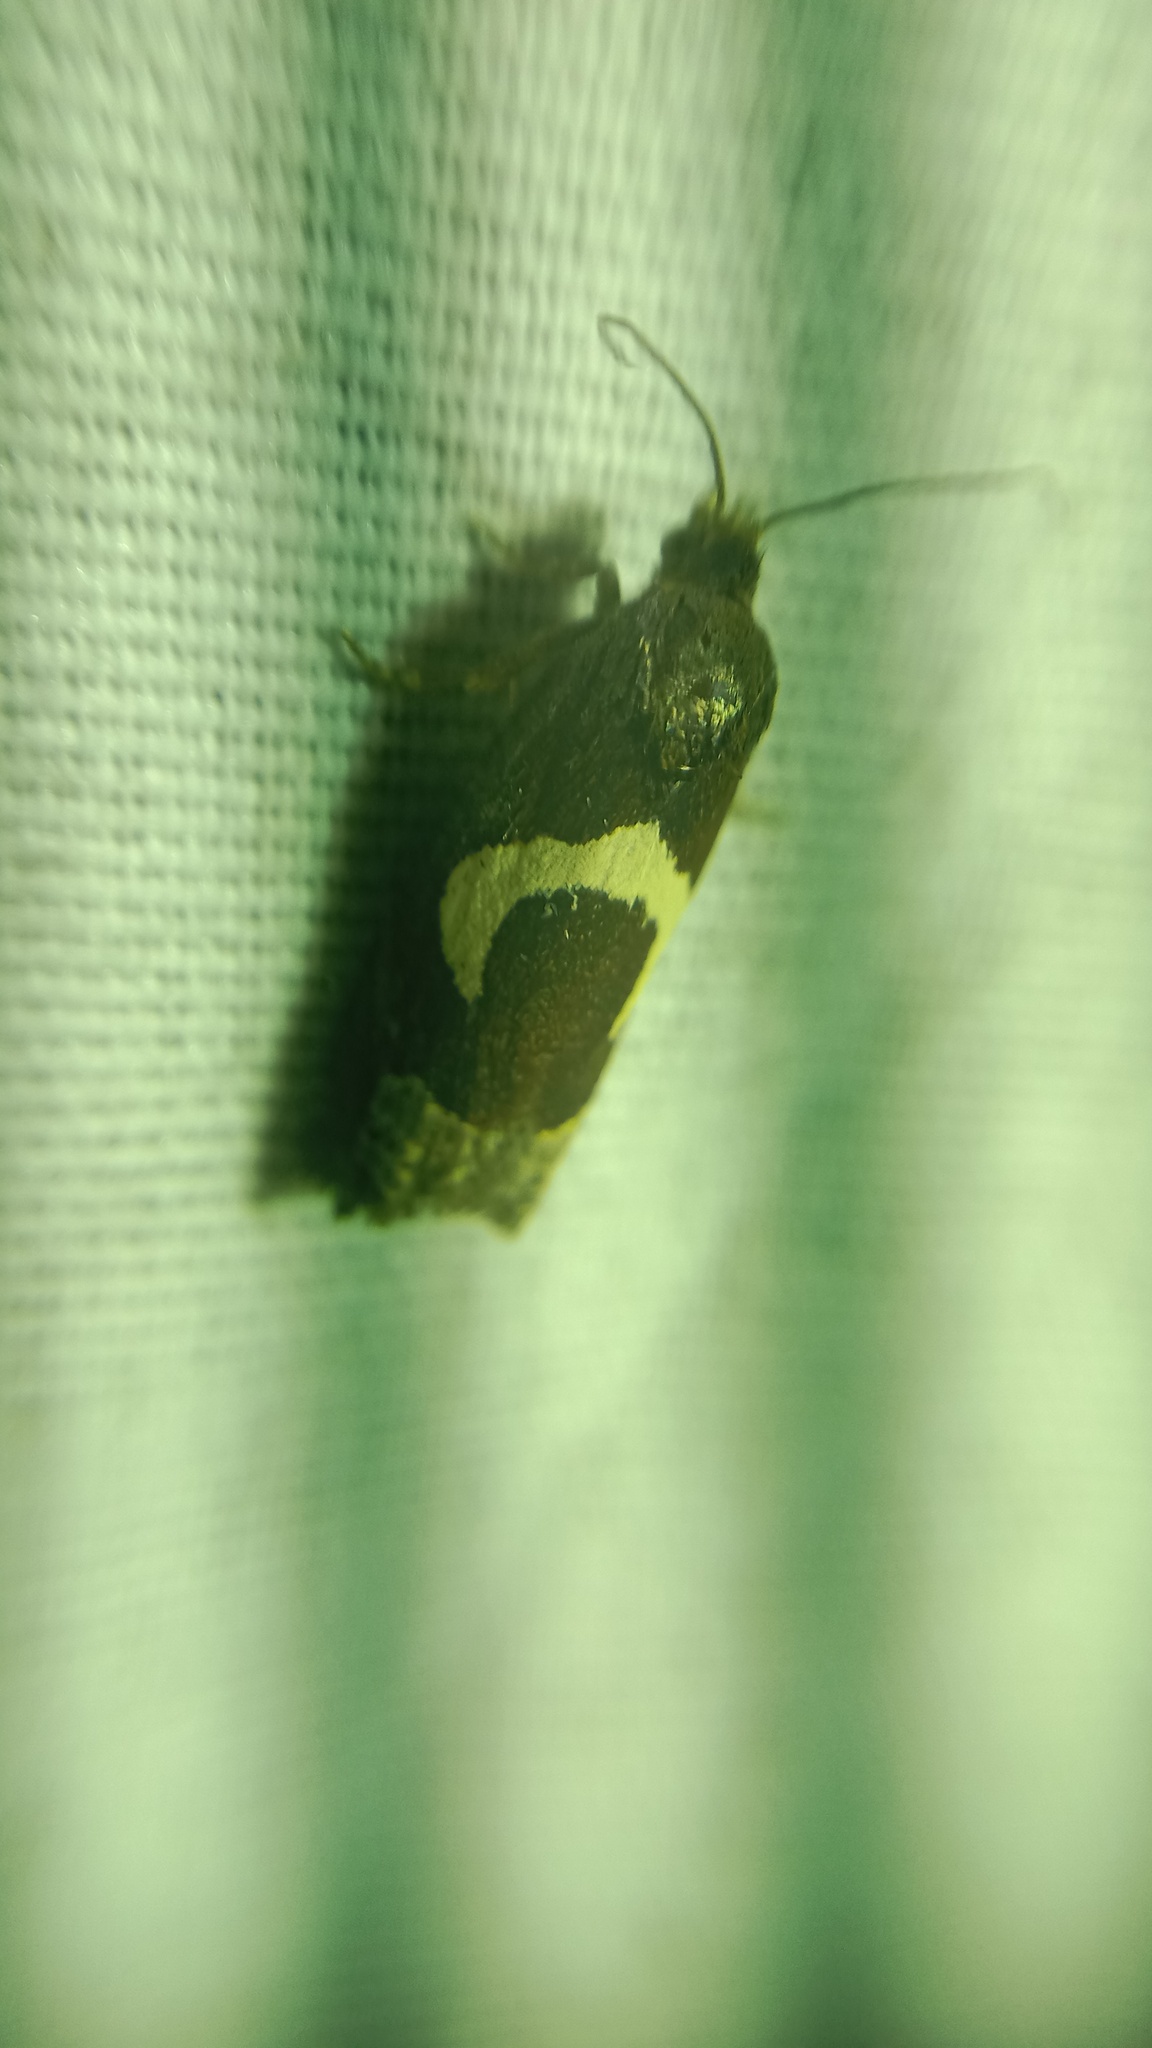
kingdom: Animalia
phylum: Arthropoda
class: Insecta
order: Lepidoptera
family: Tortricidae
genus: Epiblema
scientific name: Epiblema foenella
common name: White-foot bell
